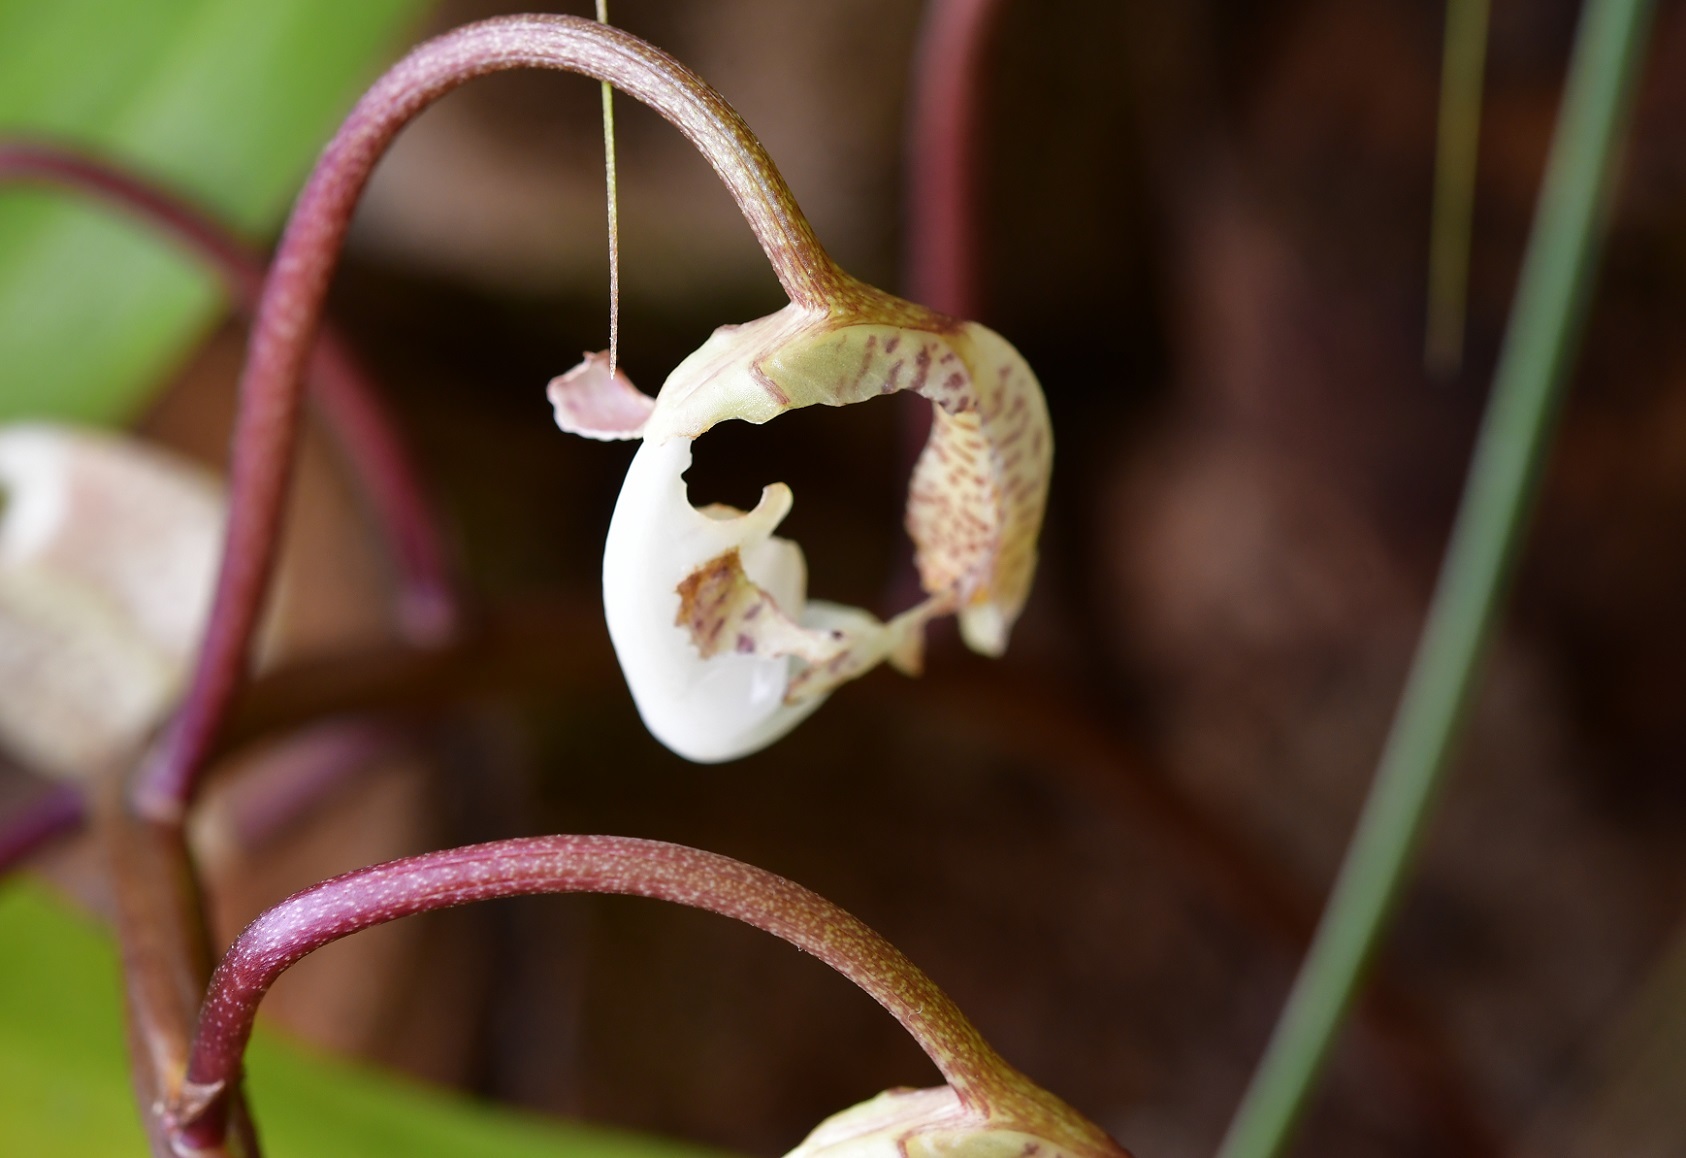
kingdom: Plantae
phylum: Tracheophyta
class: Liliopsida
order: Asparagales
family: Orchidaceae
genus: Gongora
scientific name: Gongora truncata
